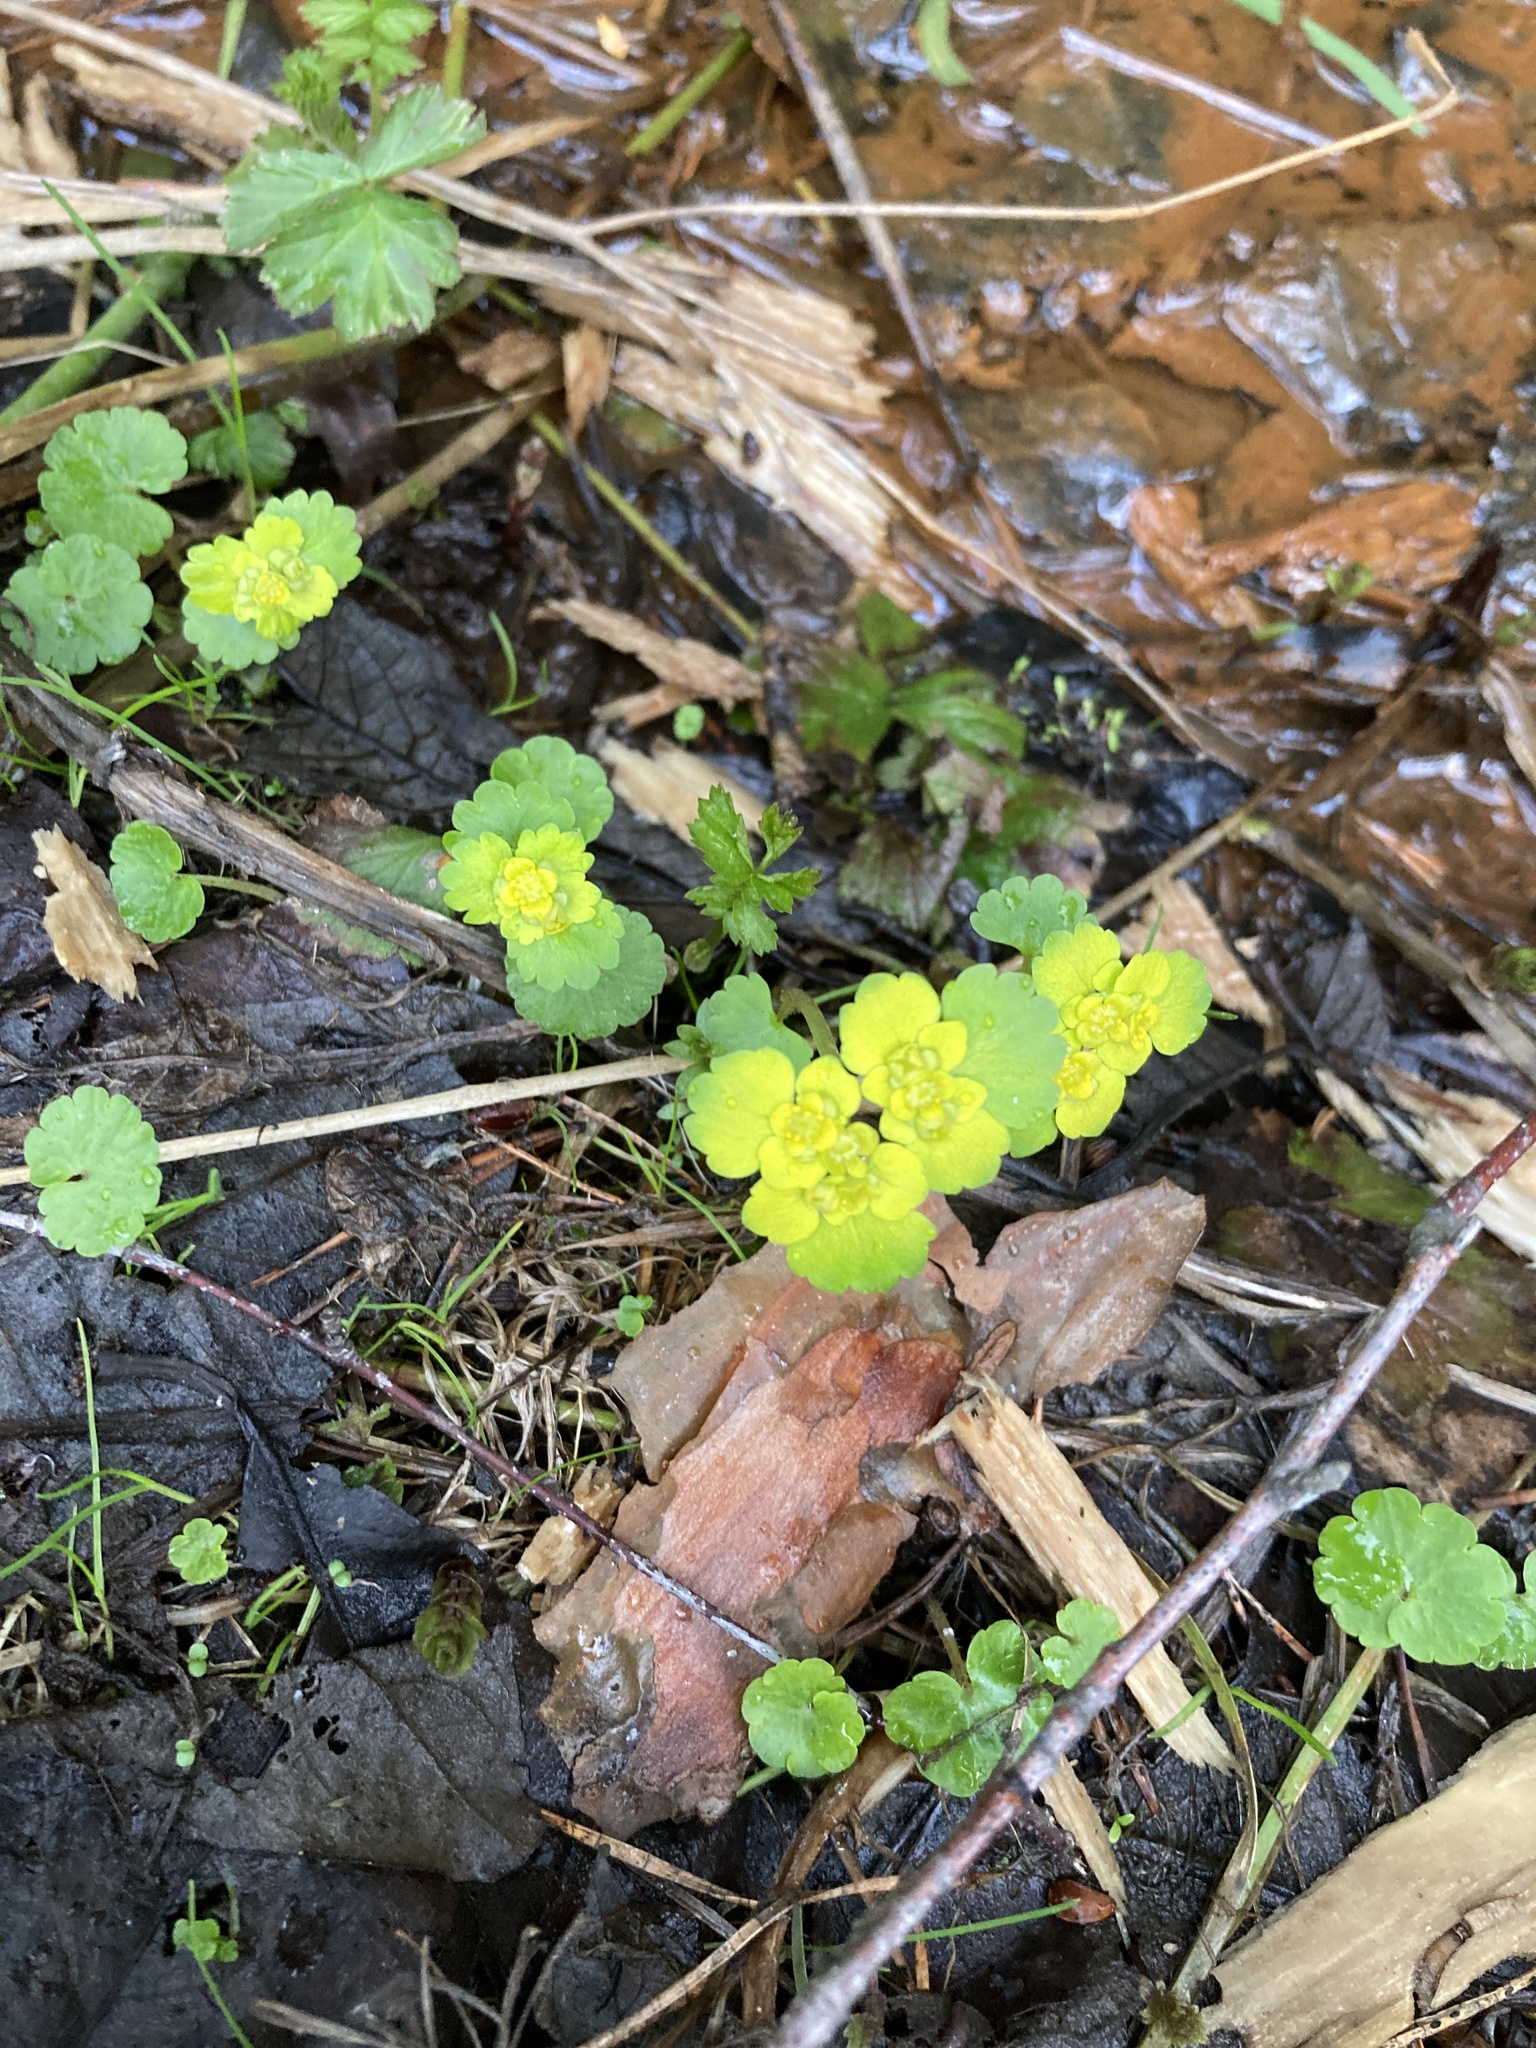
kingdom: Plantae
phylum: Tracheophyta
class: Magnoliopsida
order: Saxifragales
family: Saxifragaceae
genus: Chrysosplenium
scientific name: Chrysosplenium alternifolium
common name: Alternate-leaved golden-saxifrage
